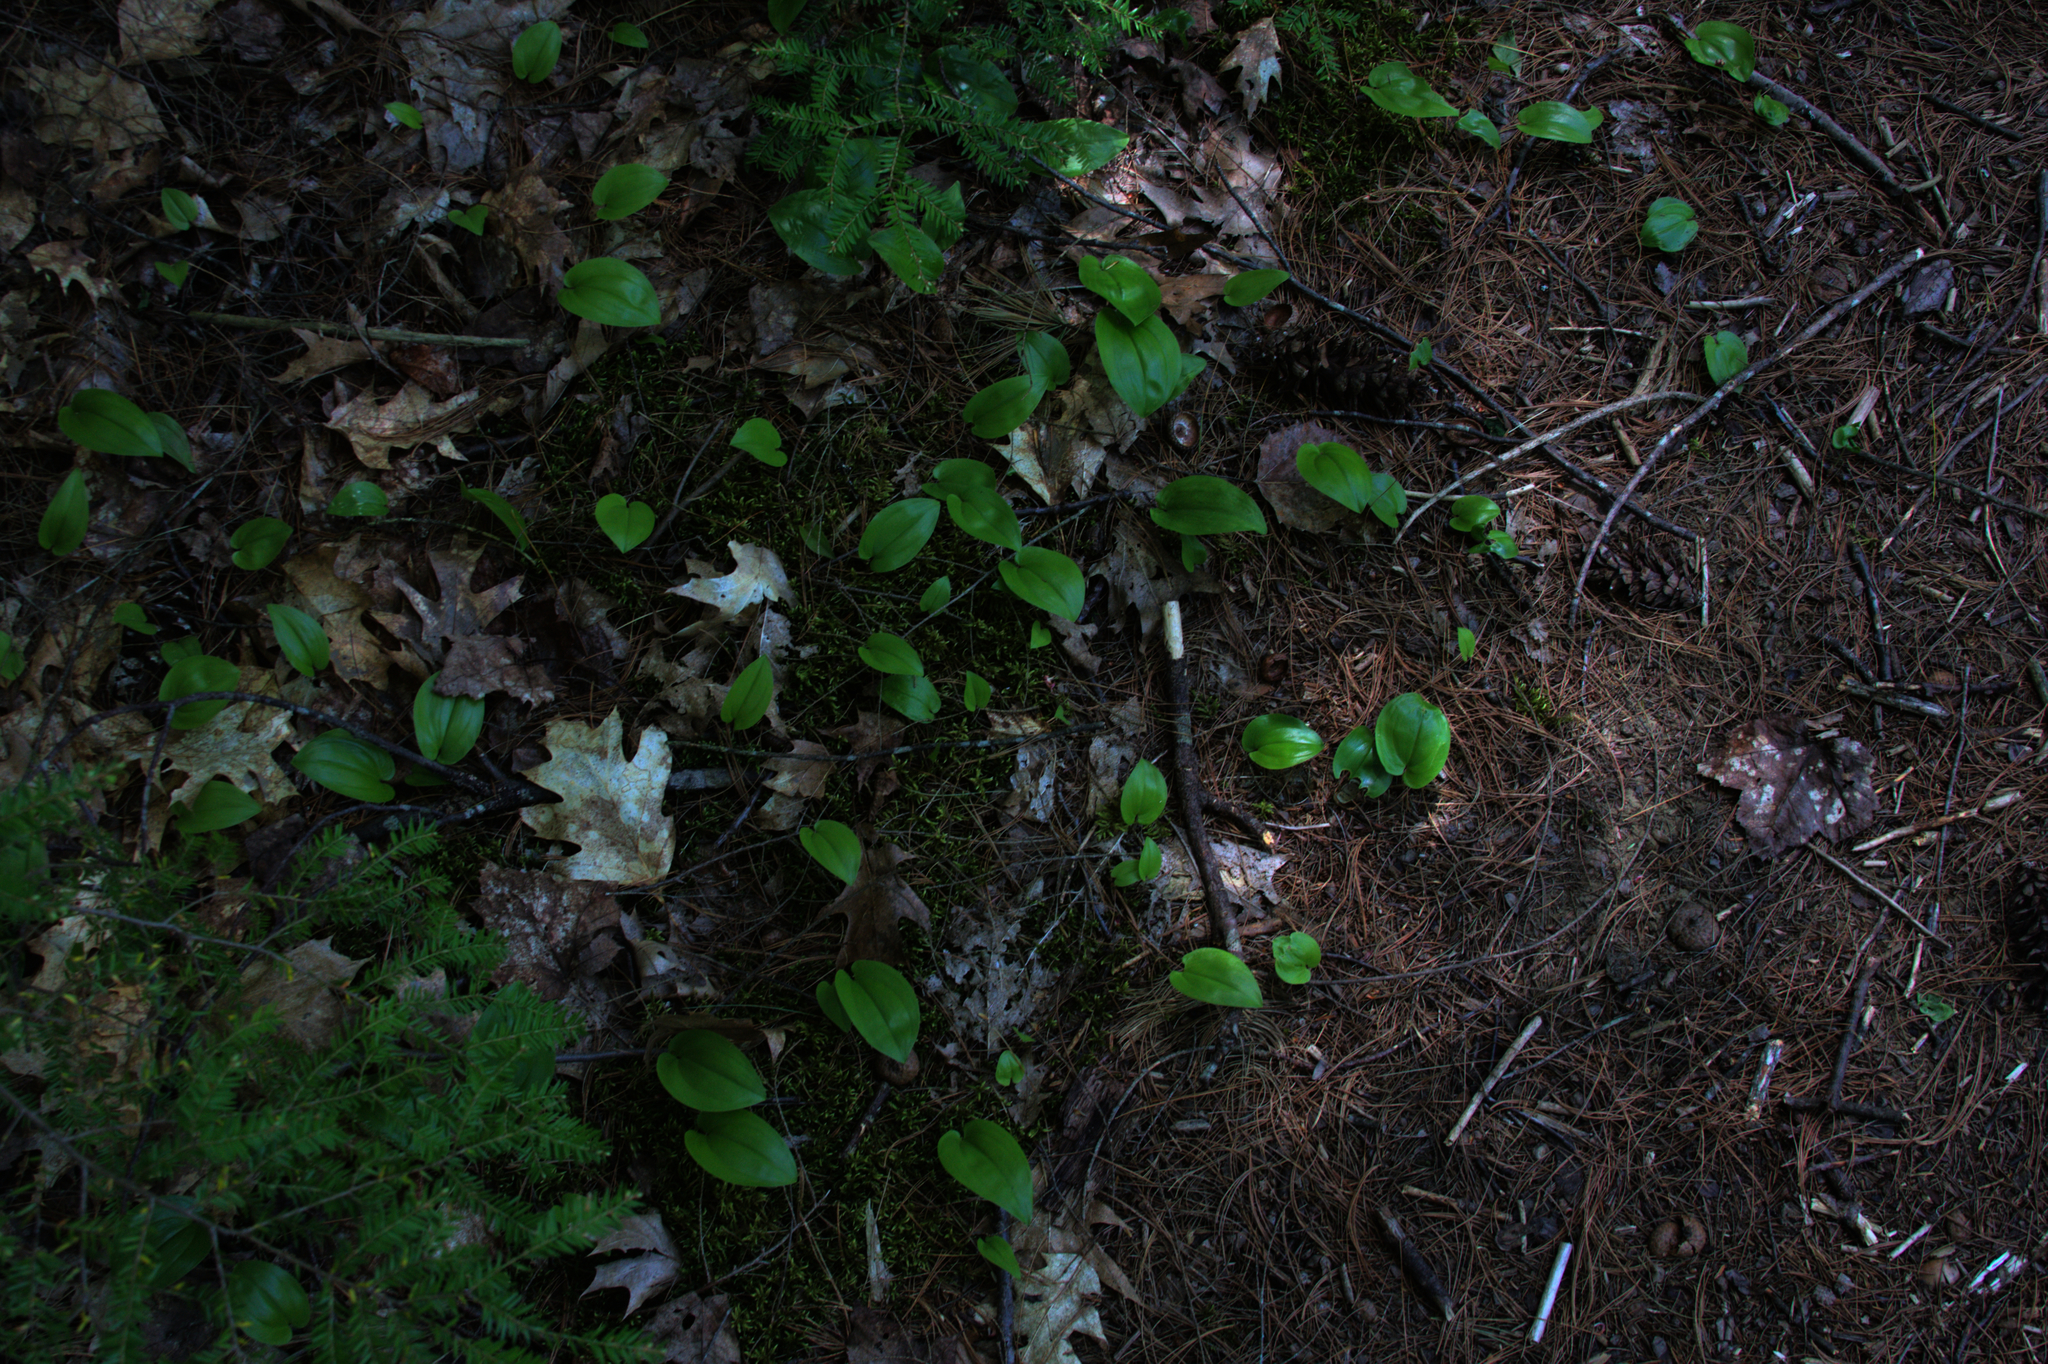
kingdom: Plantae
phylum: Tracheophyta
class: Liliopsida
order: Asparagales
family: Asparagaceae
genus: Maianthemum
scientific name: Maianthemum canadense
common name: False lily-of-the-valley
